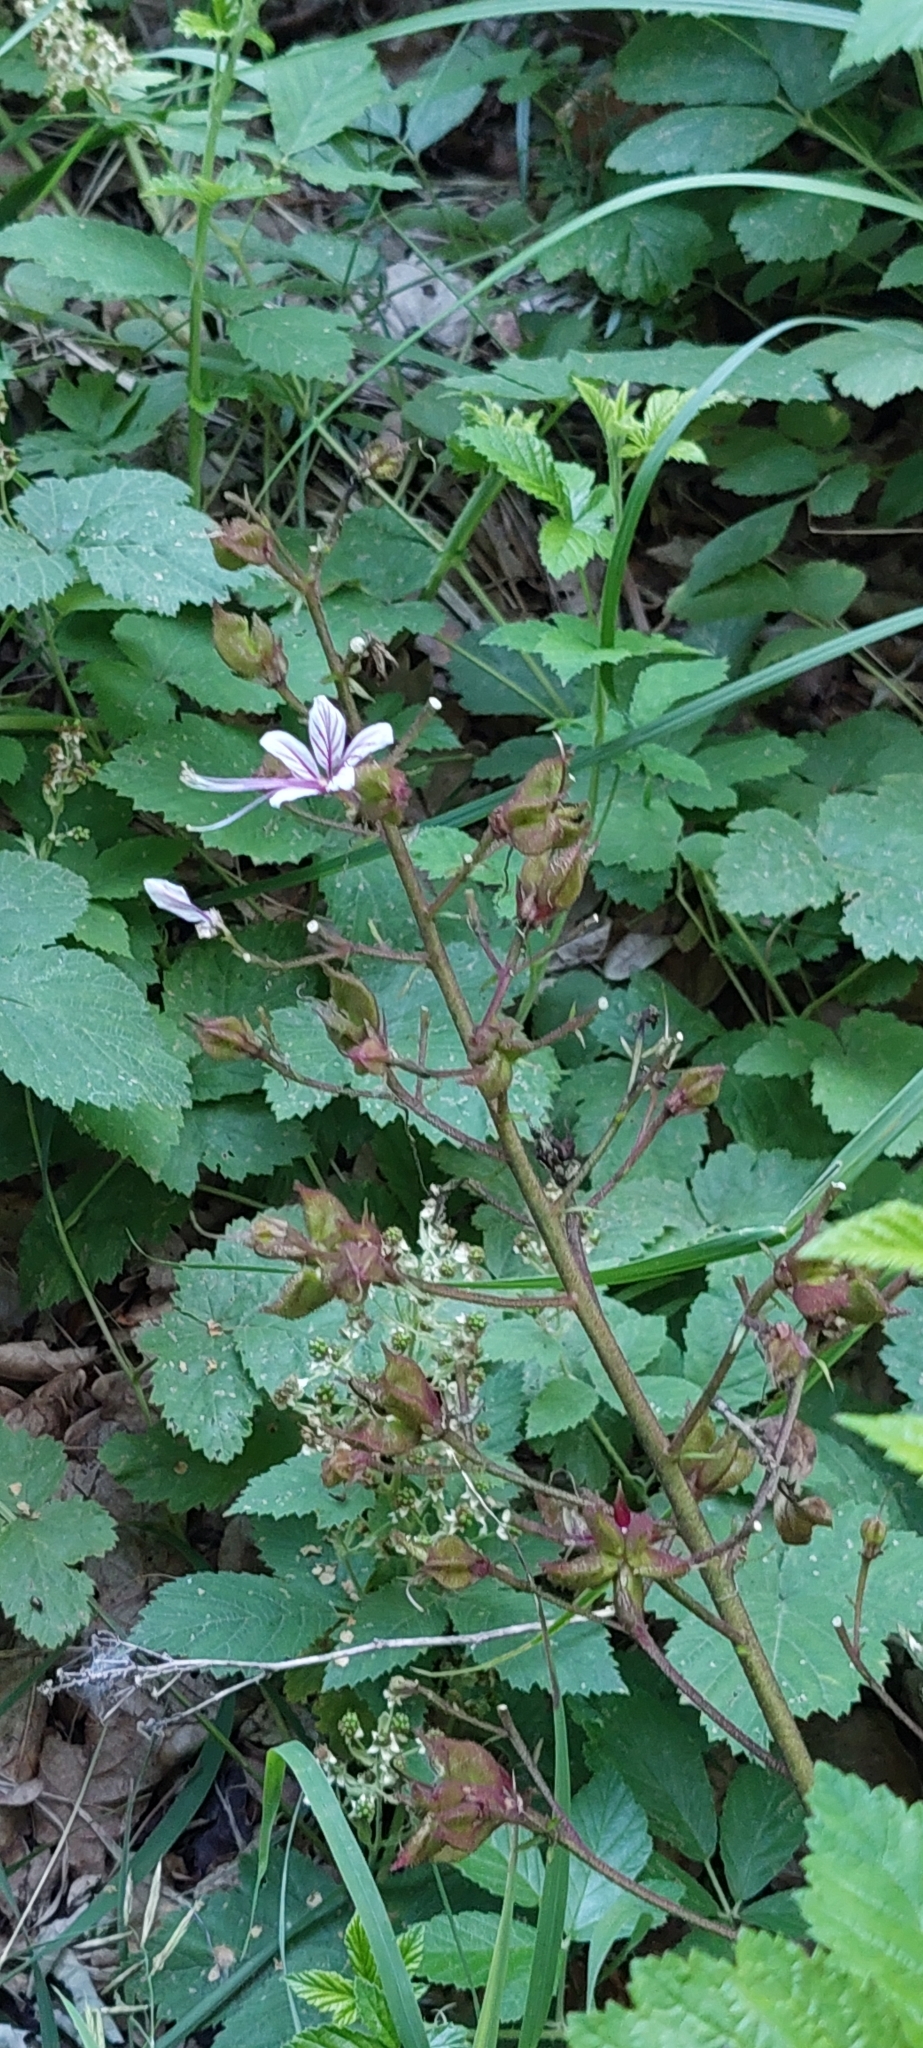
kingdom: Plantae
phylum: Tracheophyta
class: Magnoliopsida
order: Sapindales
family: Rutaceae
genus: Dictamnus
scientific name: Dictamnus albus
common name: Gasplant
